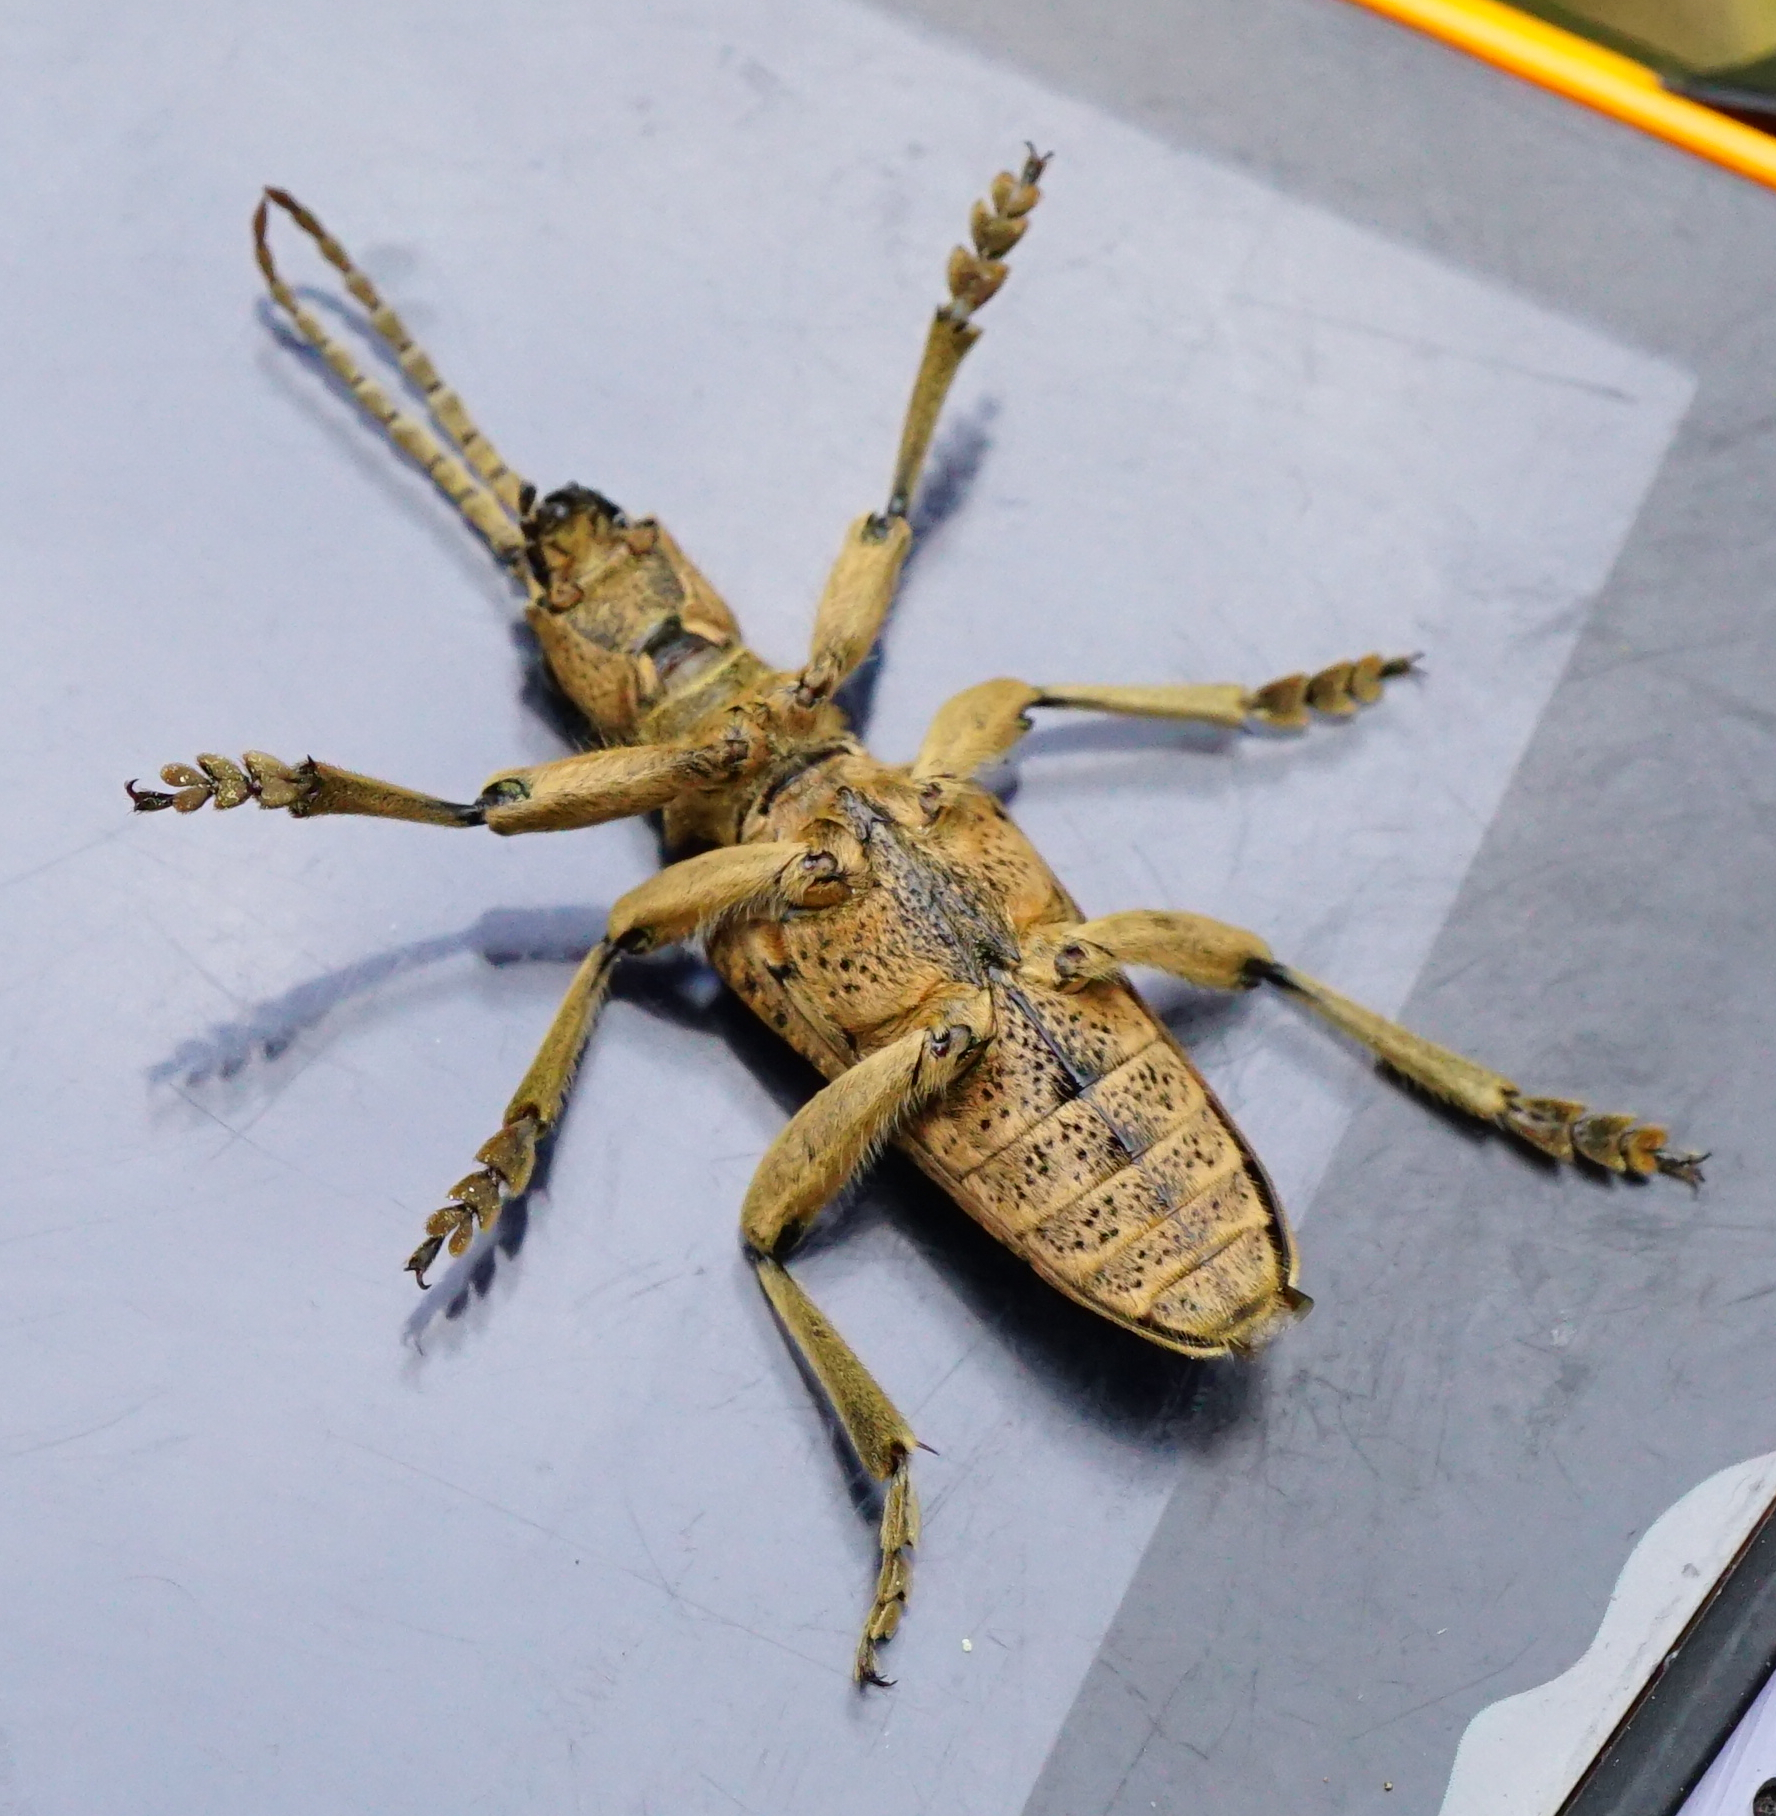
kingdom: Animalia
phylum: Arthropoda
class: Insecta
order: Coleoptera
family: Cerambycidae
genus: Rhagium
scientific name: Rhagium sycophanta
